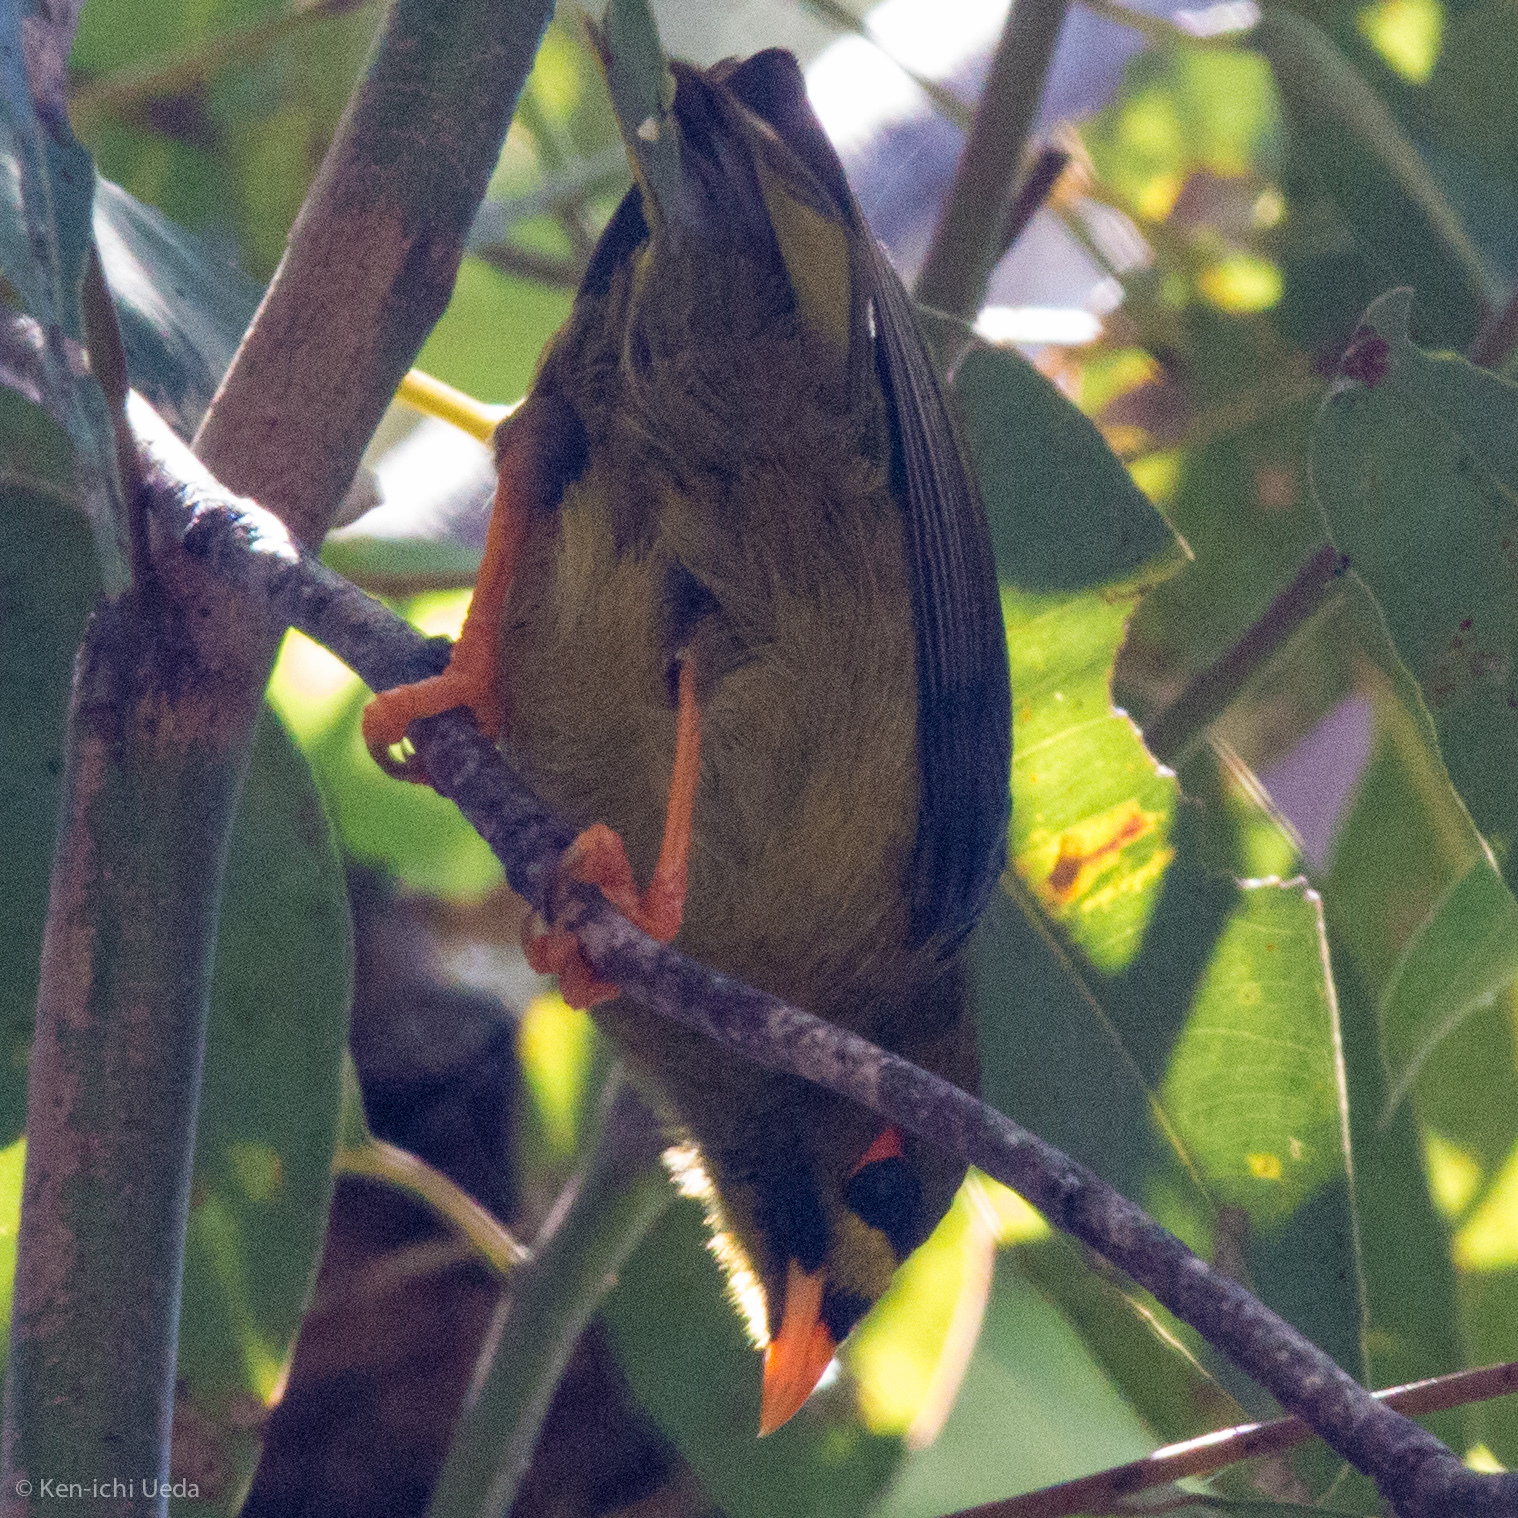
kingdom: Animalia
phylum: Chordata
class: Aves
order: Passeriformes
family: Meliphagidae
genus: Manorina
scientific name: Manorina melanophrys
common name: Bell miner
